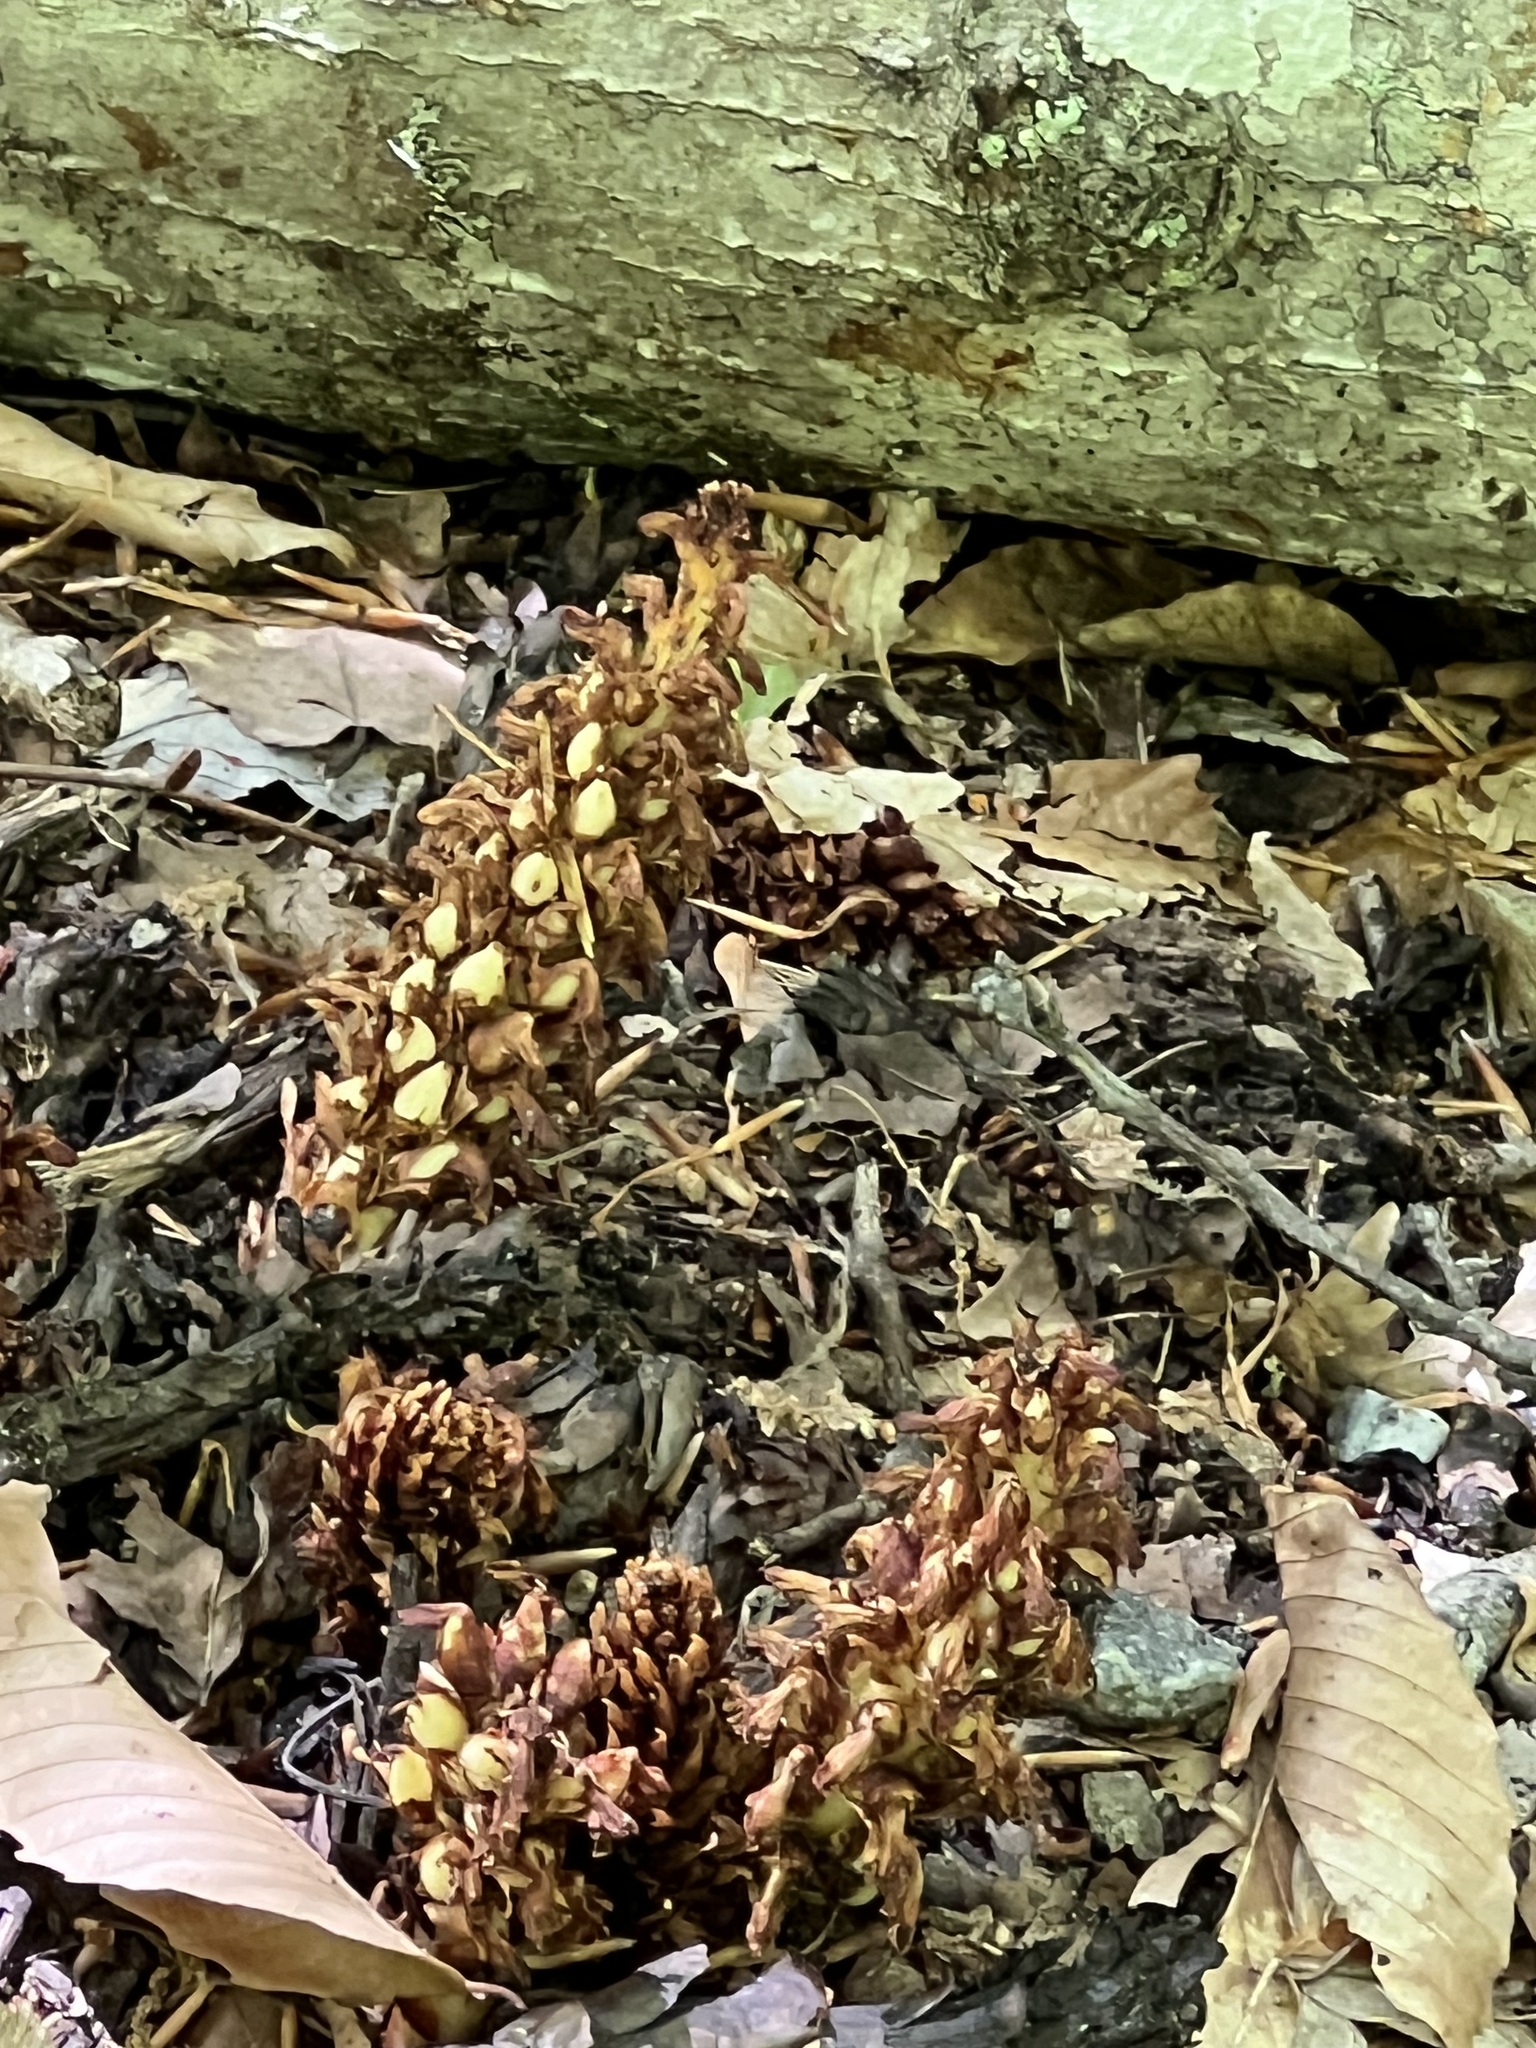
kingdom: Plantae
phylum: Tracheophyta
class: Magnoliopsida
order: Lamiales
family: Orobanchaceae
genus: Conopholis
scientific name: Conopholis americana
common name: American cancer-root
